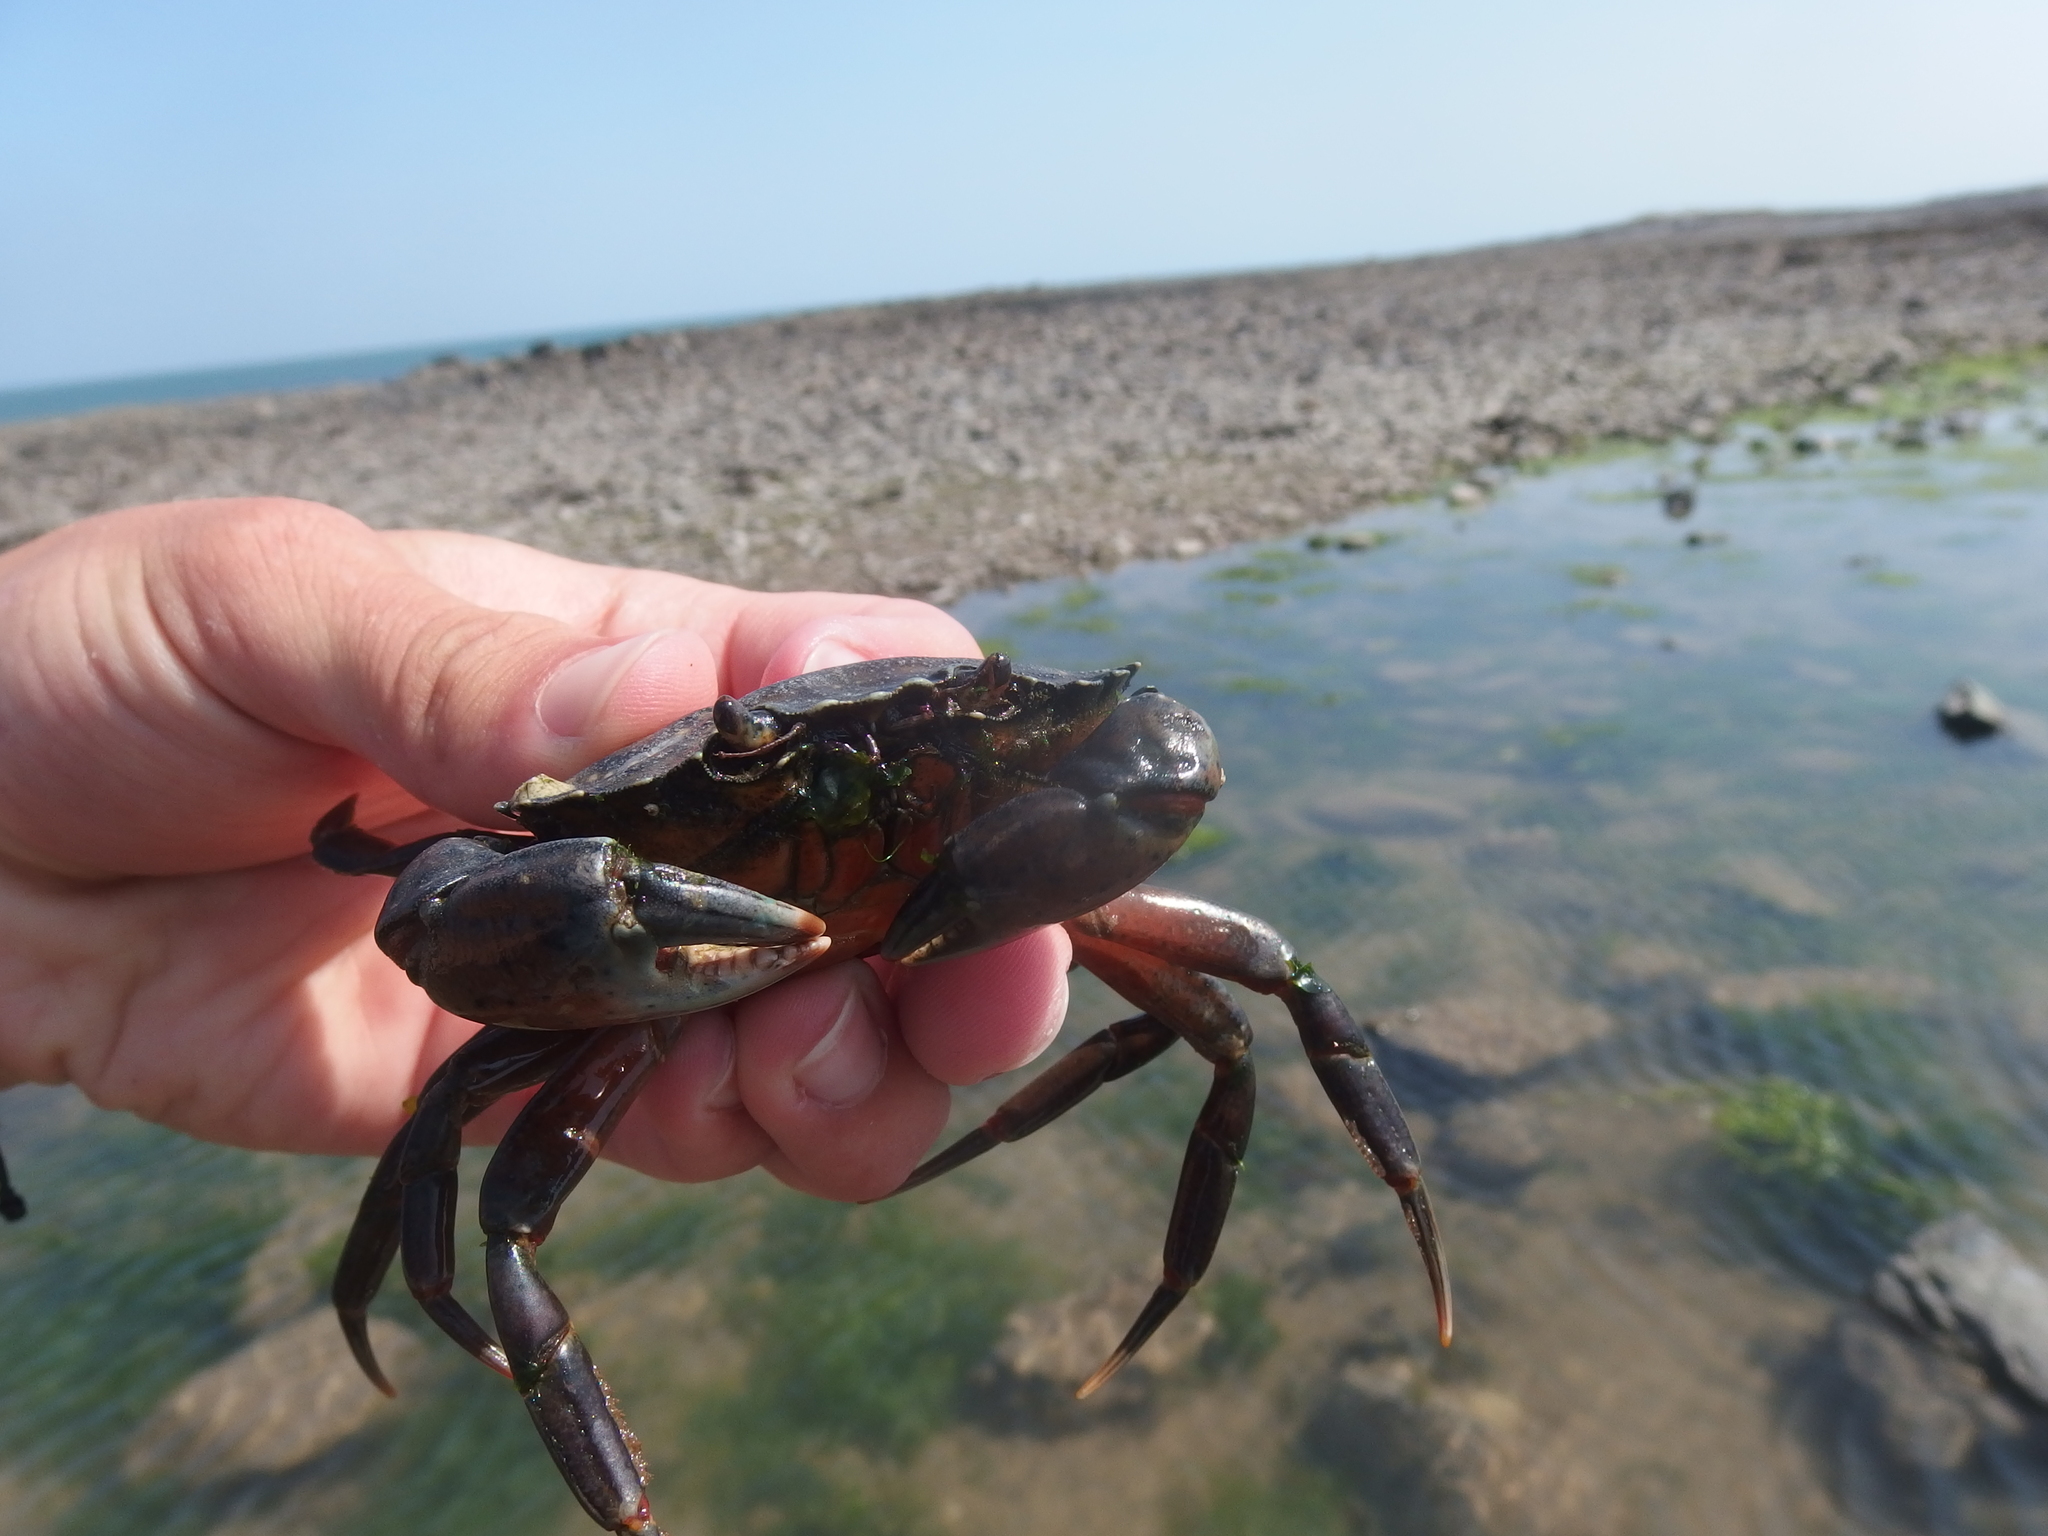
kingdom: Animalia
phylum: Arthropoda
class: Malacostraca
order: Decapoda
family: Carcinidae
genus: Carcinus
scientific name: Carcinus maenas
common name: European green crab
